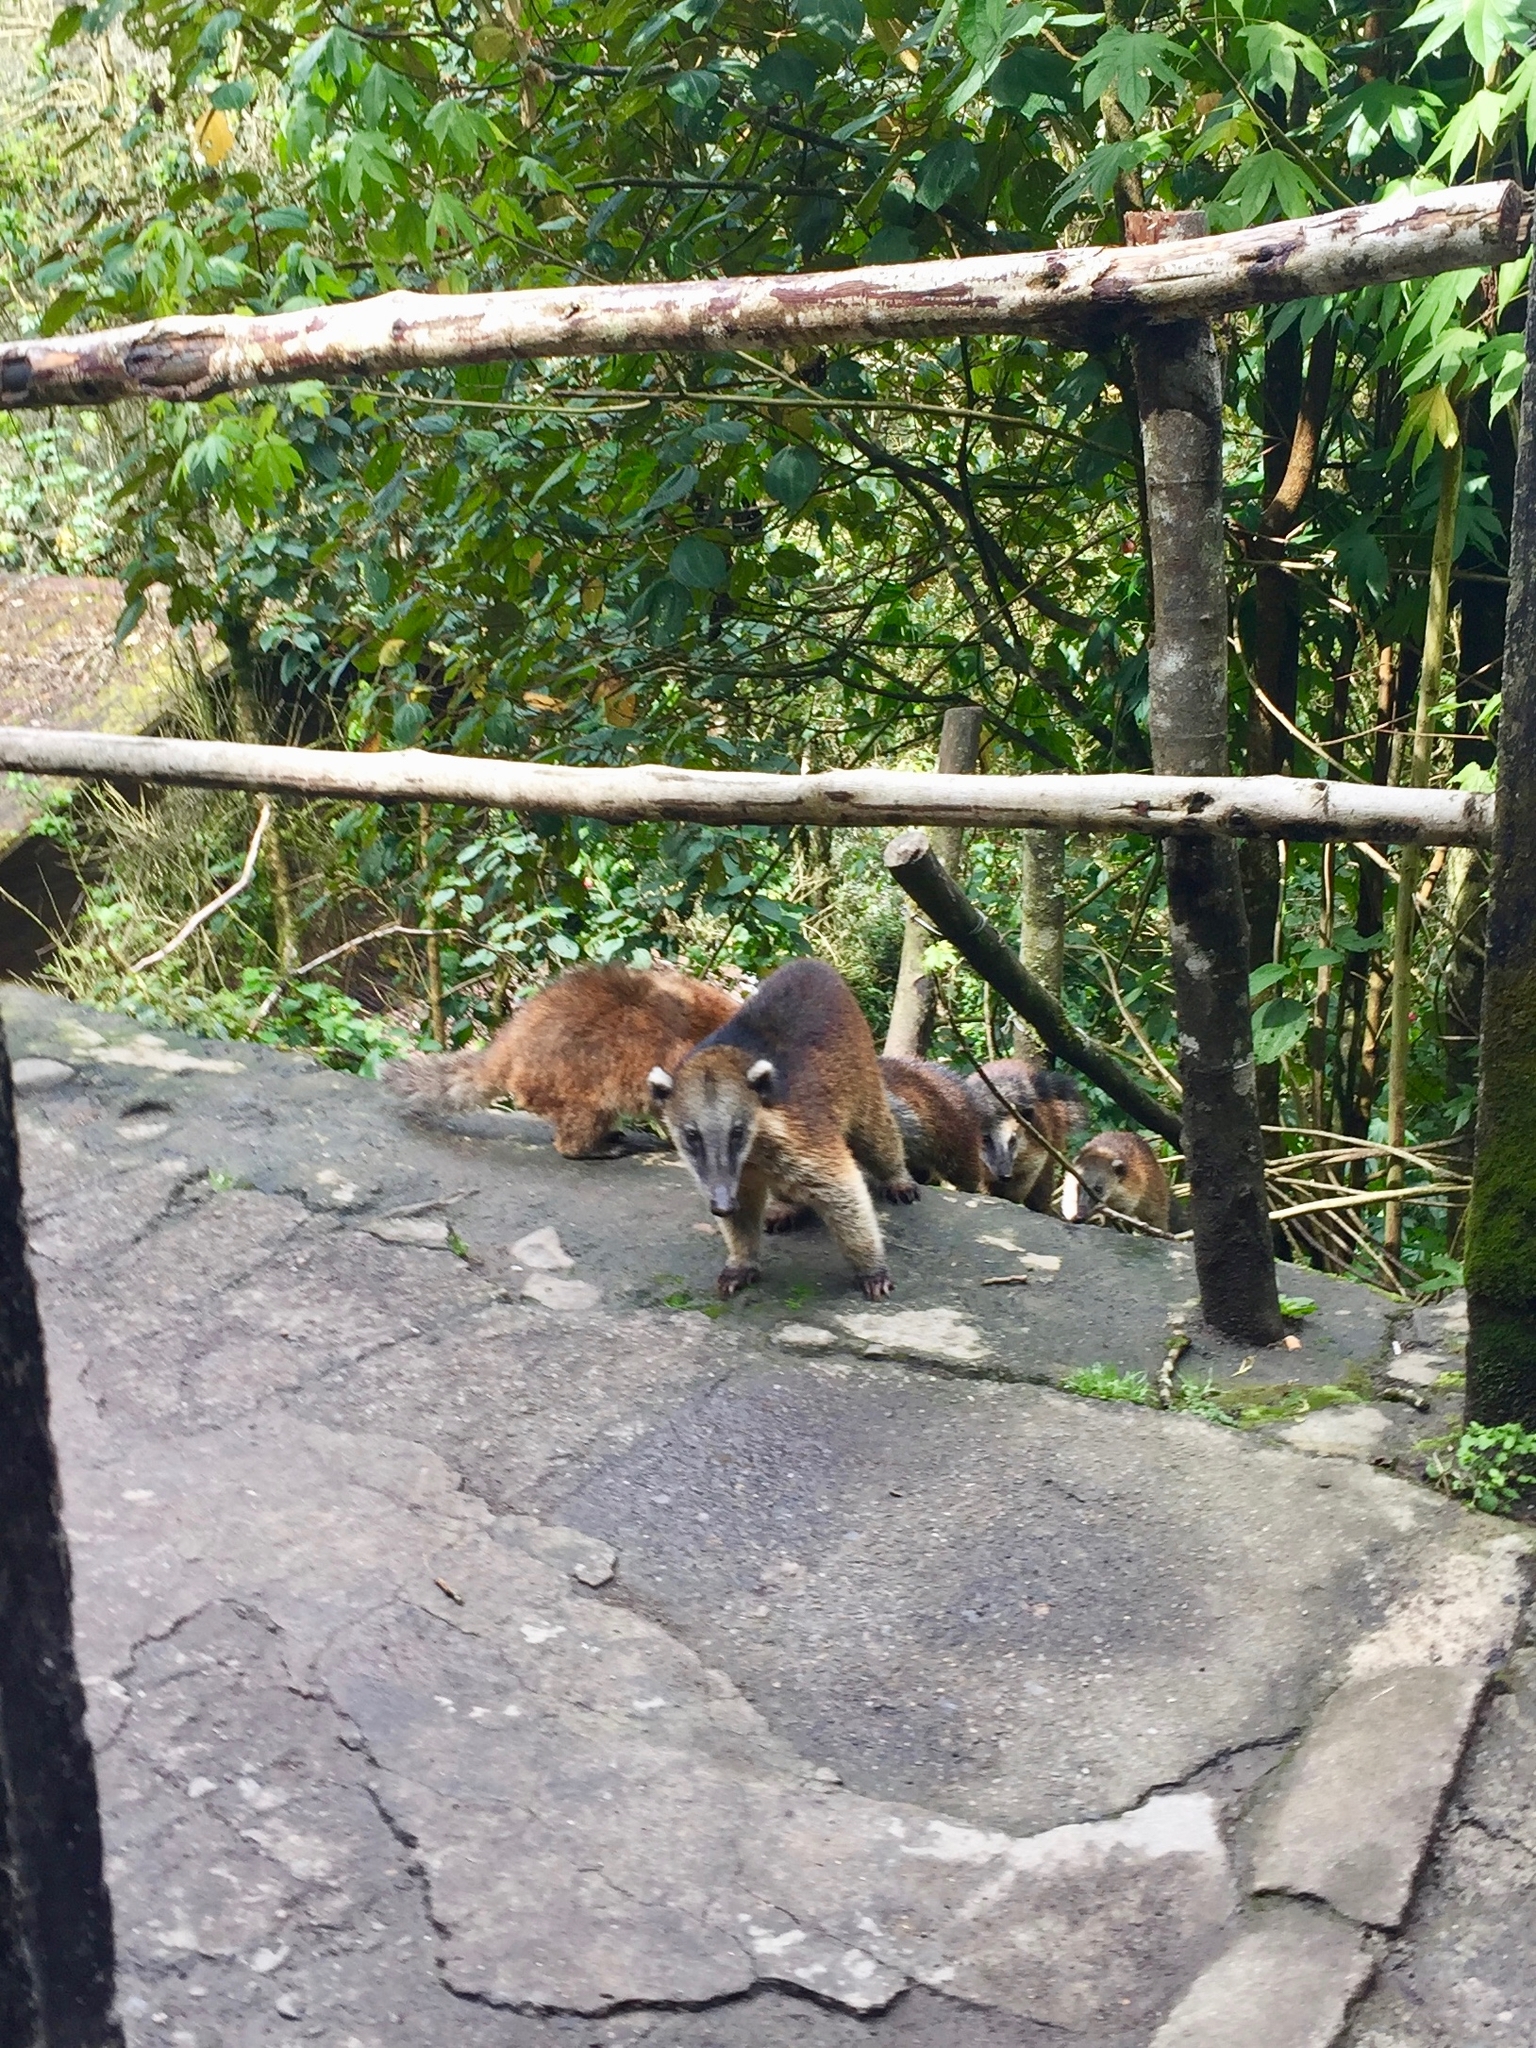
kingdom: Animalia
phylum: Chordata
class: Mammalia
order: Carnivora
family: Procyonidae
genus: Nasua
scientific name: Nasua nasua
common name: South american coati
